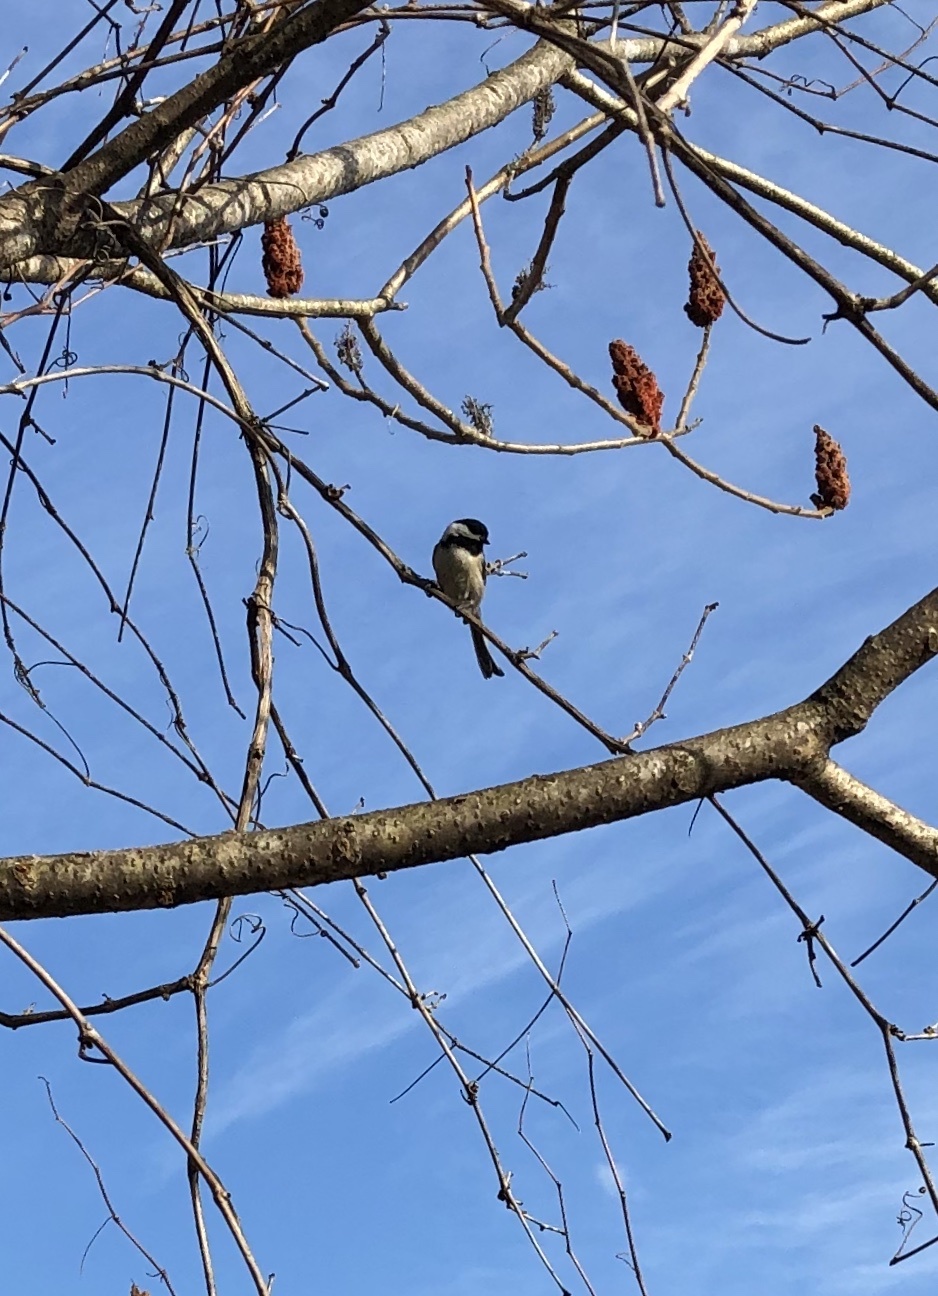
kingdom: Animalia
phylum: Chordata
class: Aves
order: Passeriformes
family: Paridae
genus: Poecile
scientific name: Poecile atricapillus
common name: Black-capped chickadee
